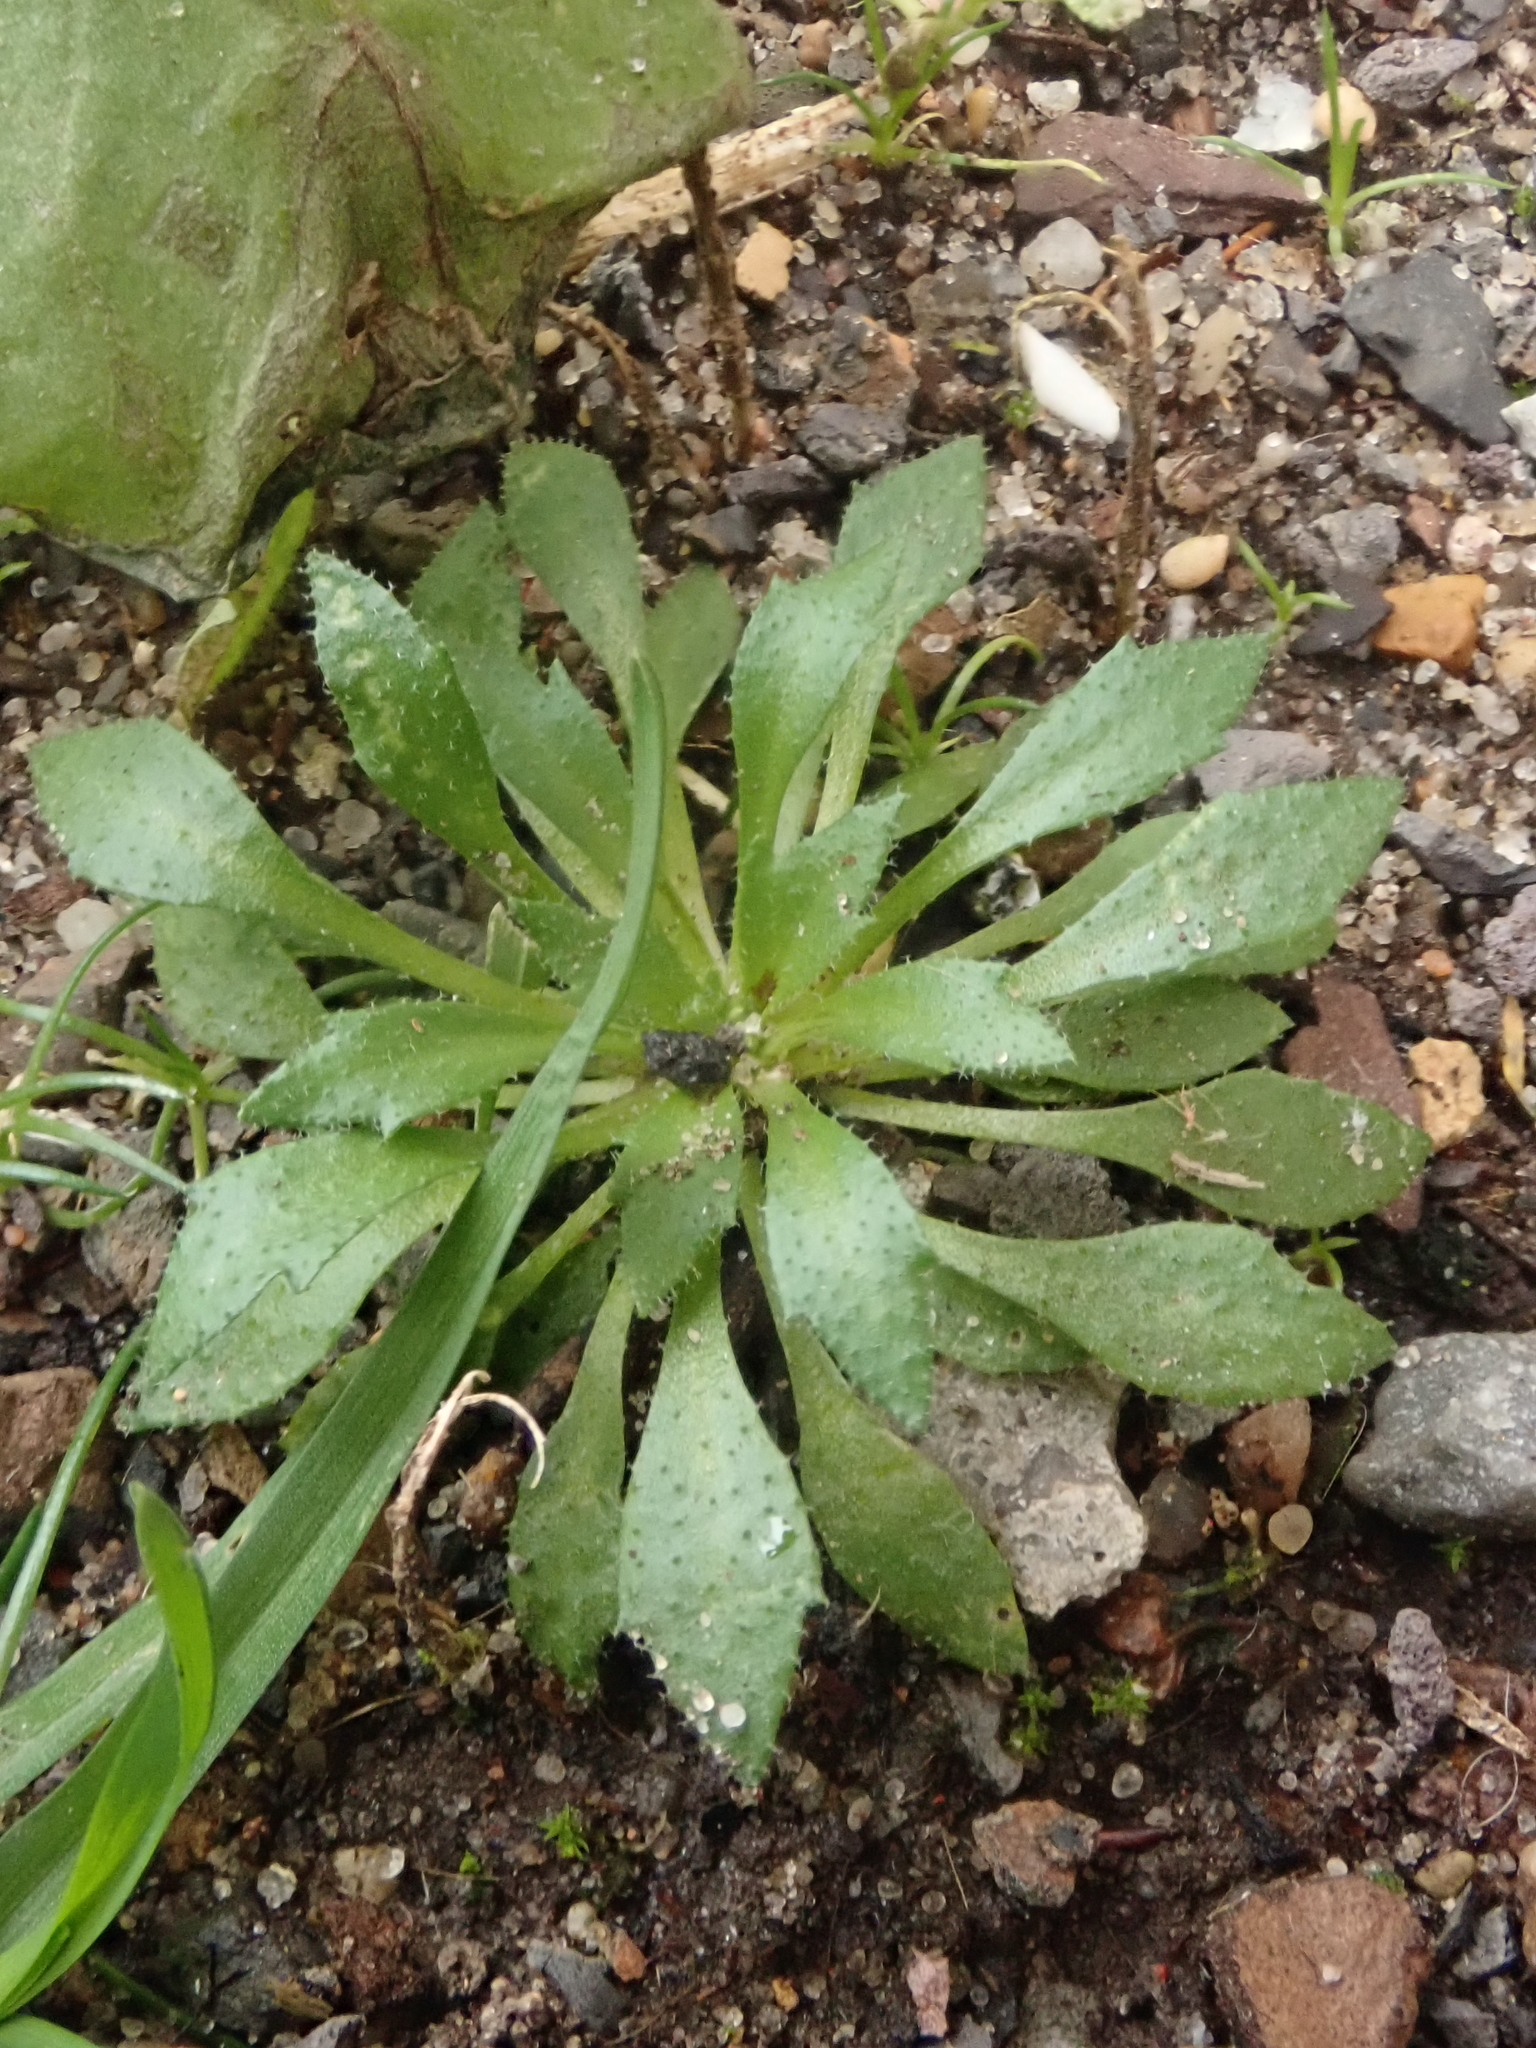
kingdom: Plantae
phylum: Tracheophyta
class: Magnoliopsida
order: Brassicales
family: Brassicaceae
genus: Draba
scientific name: Draba verna
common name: Spring draba
